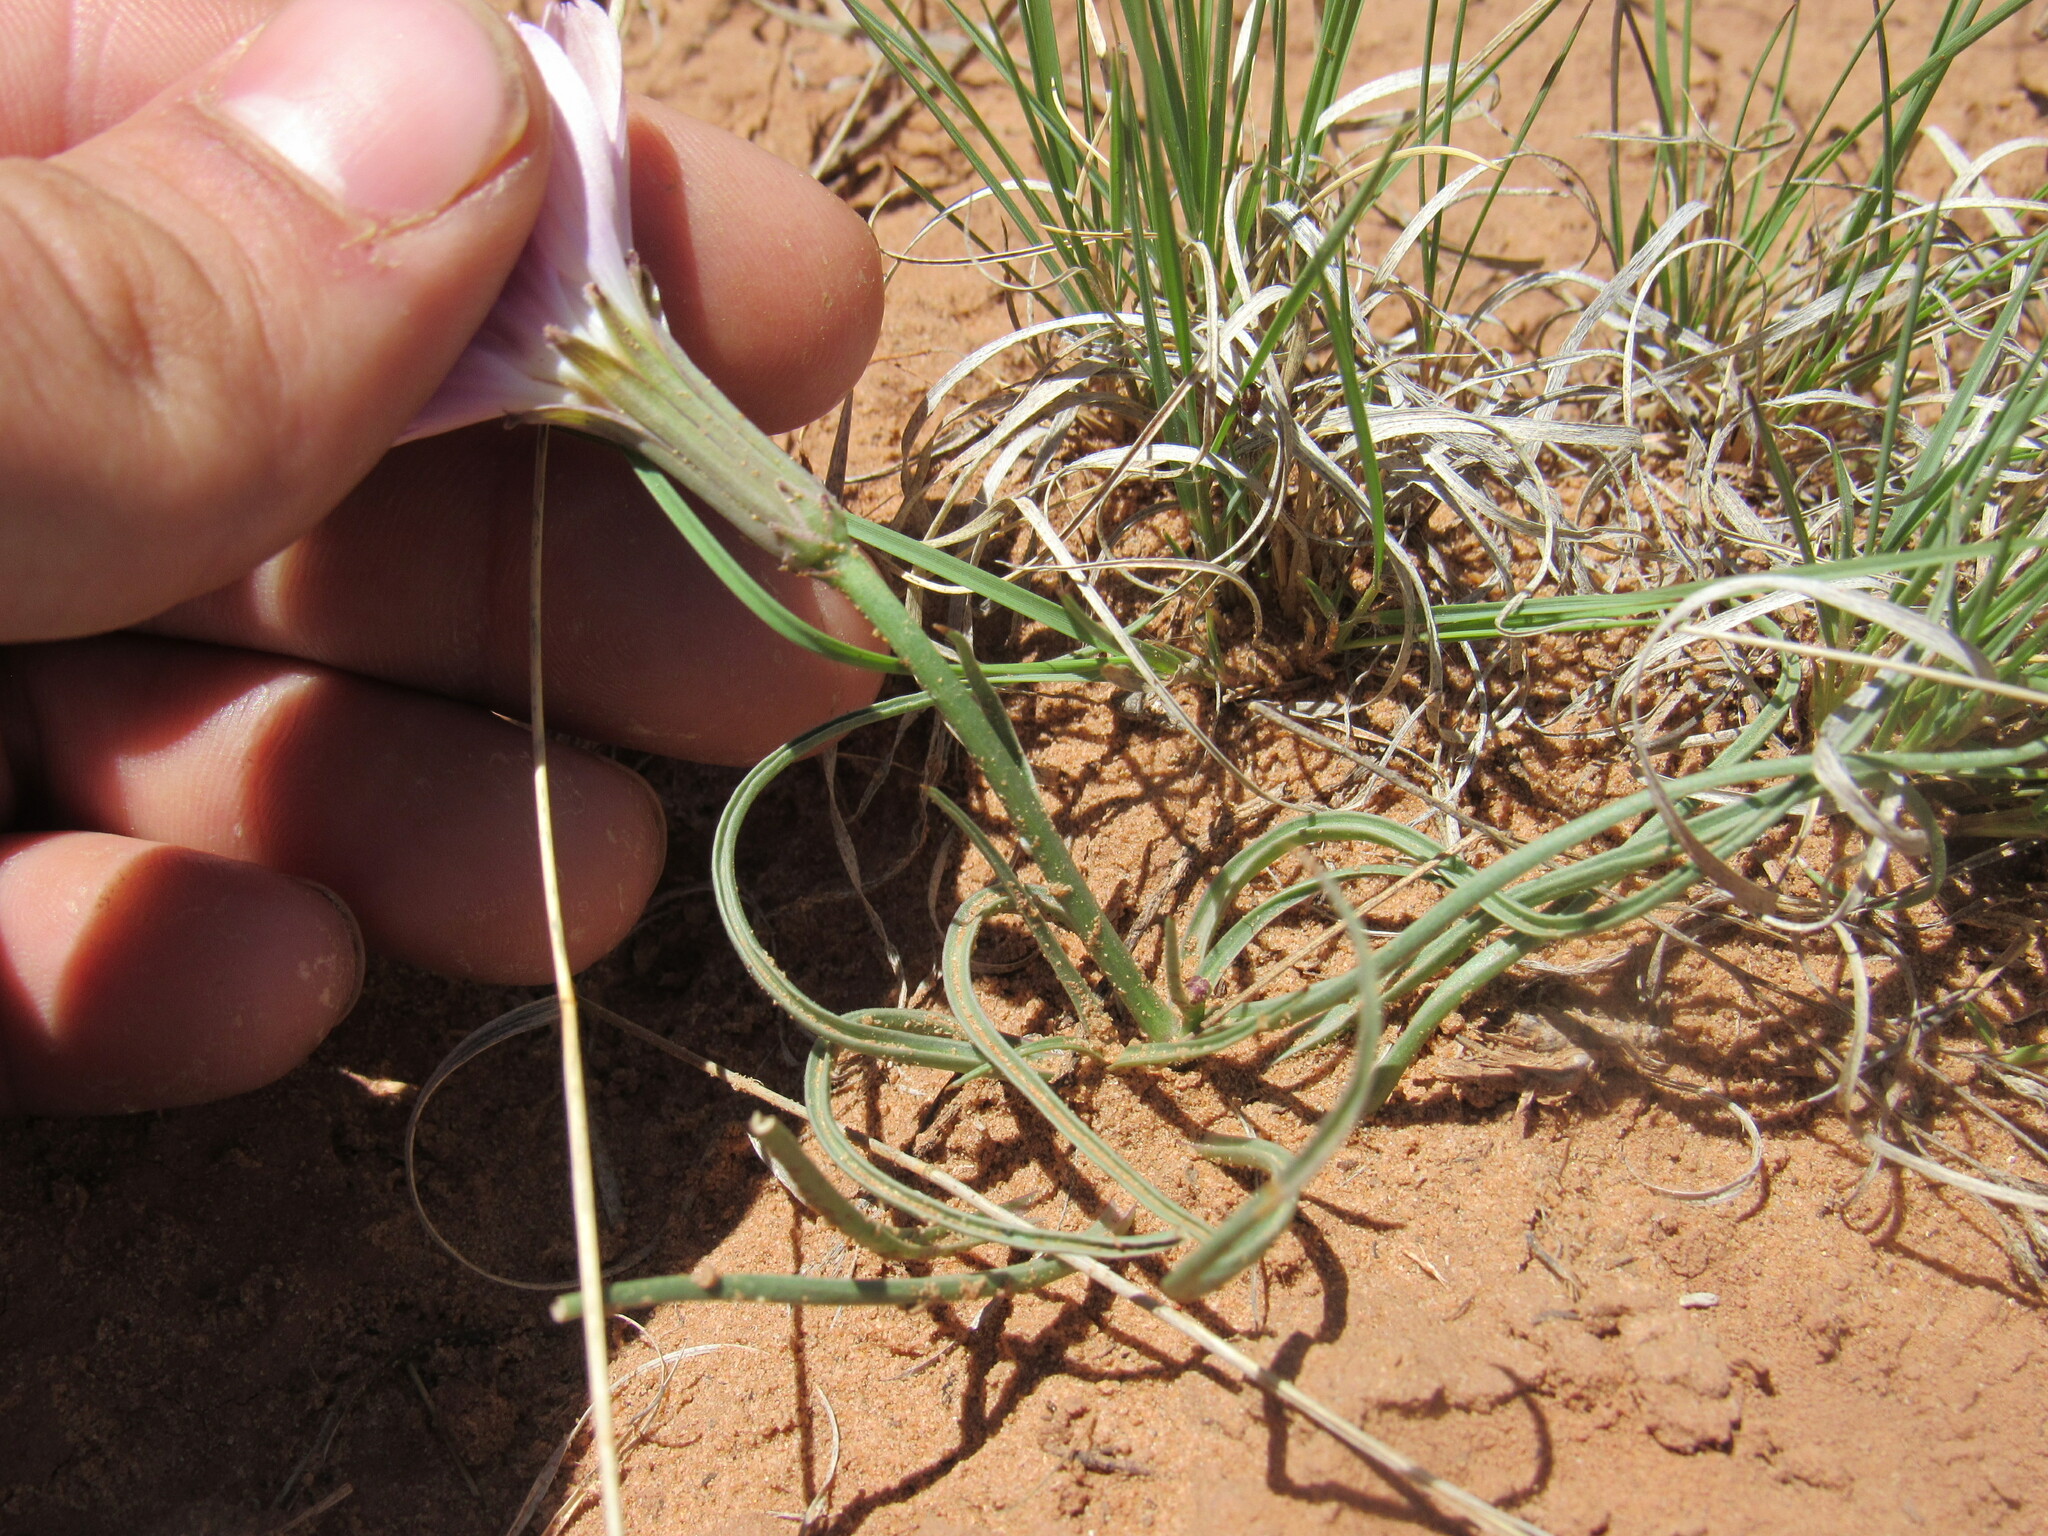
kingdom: Plantae
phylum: Tracheophyta
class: Magnoliopsida
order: Asterales
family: Asteraceae
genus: Lygodesmia
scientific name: Lygodesmia grandiflora
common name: Showy rush-pink
